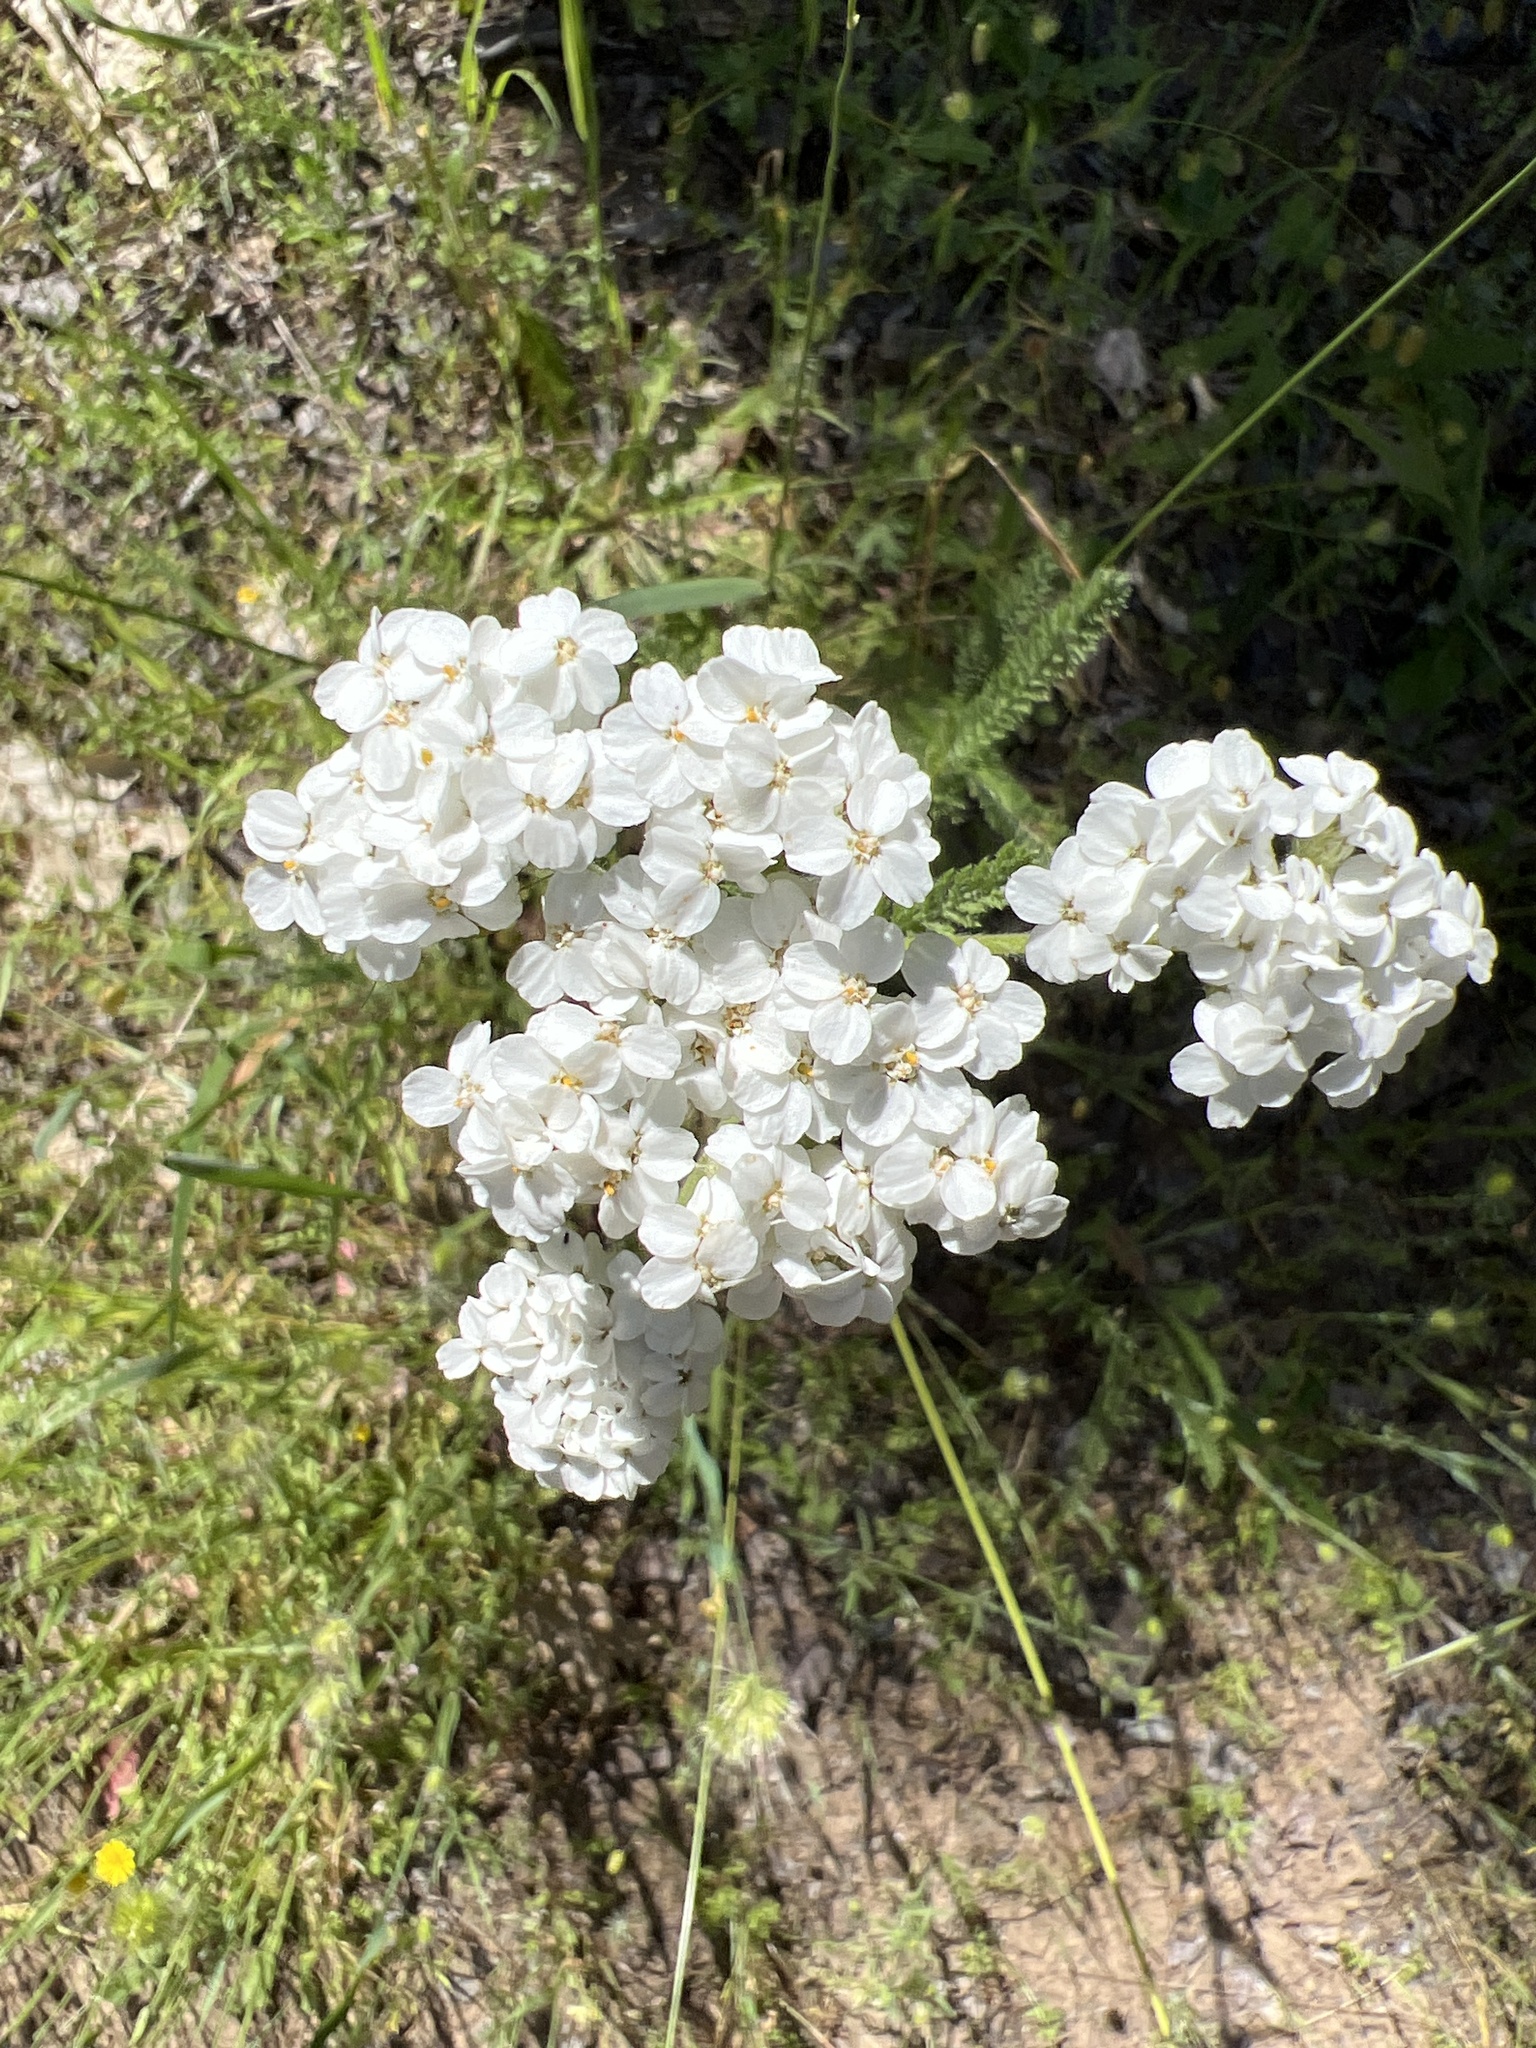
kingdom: Plantae
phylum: Tracheophyta
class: Magnoliopsida
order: Asterales
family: Asteraceae
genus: Achillea
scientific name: Achillea millefolium
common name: Yarrow
